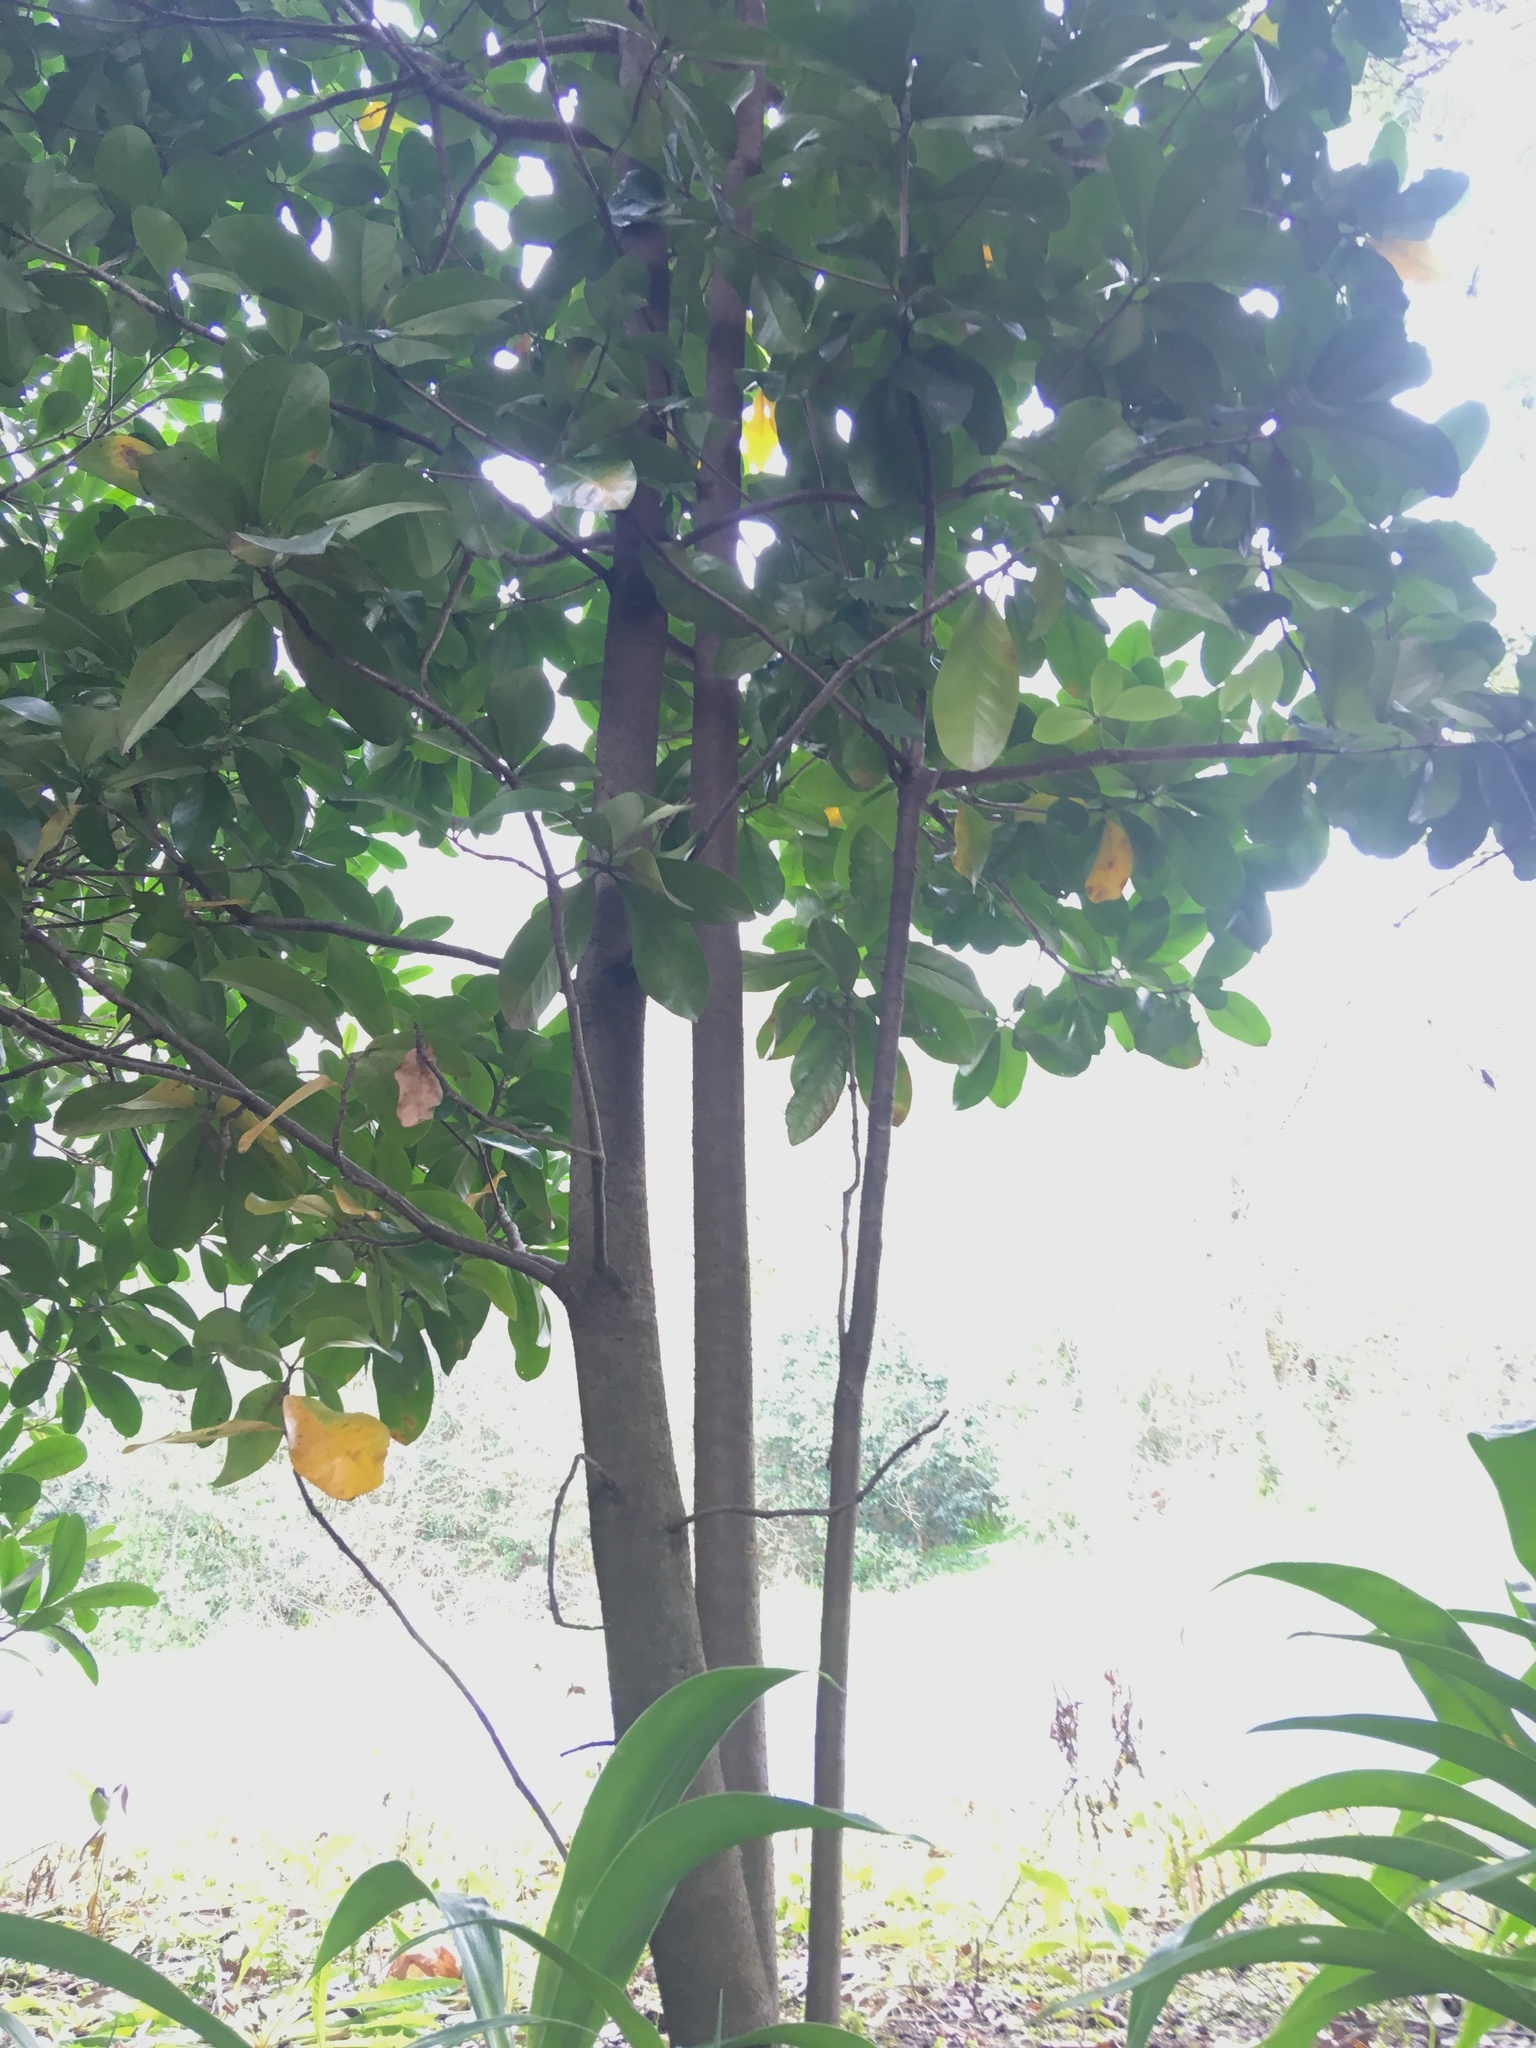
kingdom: Plantae
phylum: Tracheophyta
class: Magnoliopsida
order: Cucurbitales
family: Corynocarpaceae
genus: Corynocarpus
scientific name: Corynocarpus laevigatus
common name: New zealand laurel
